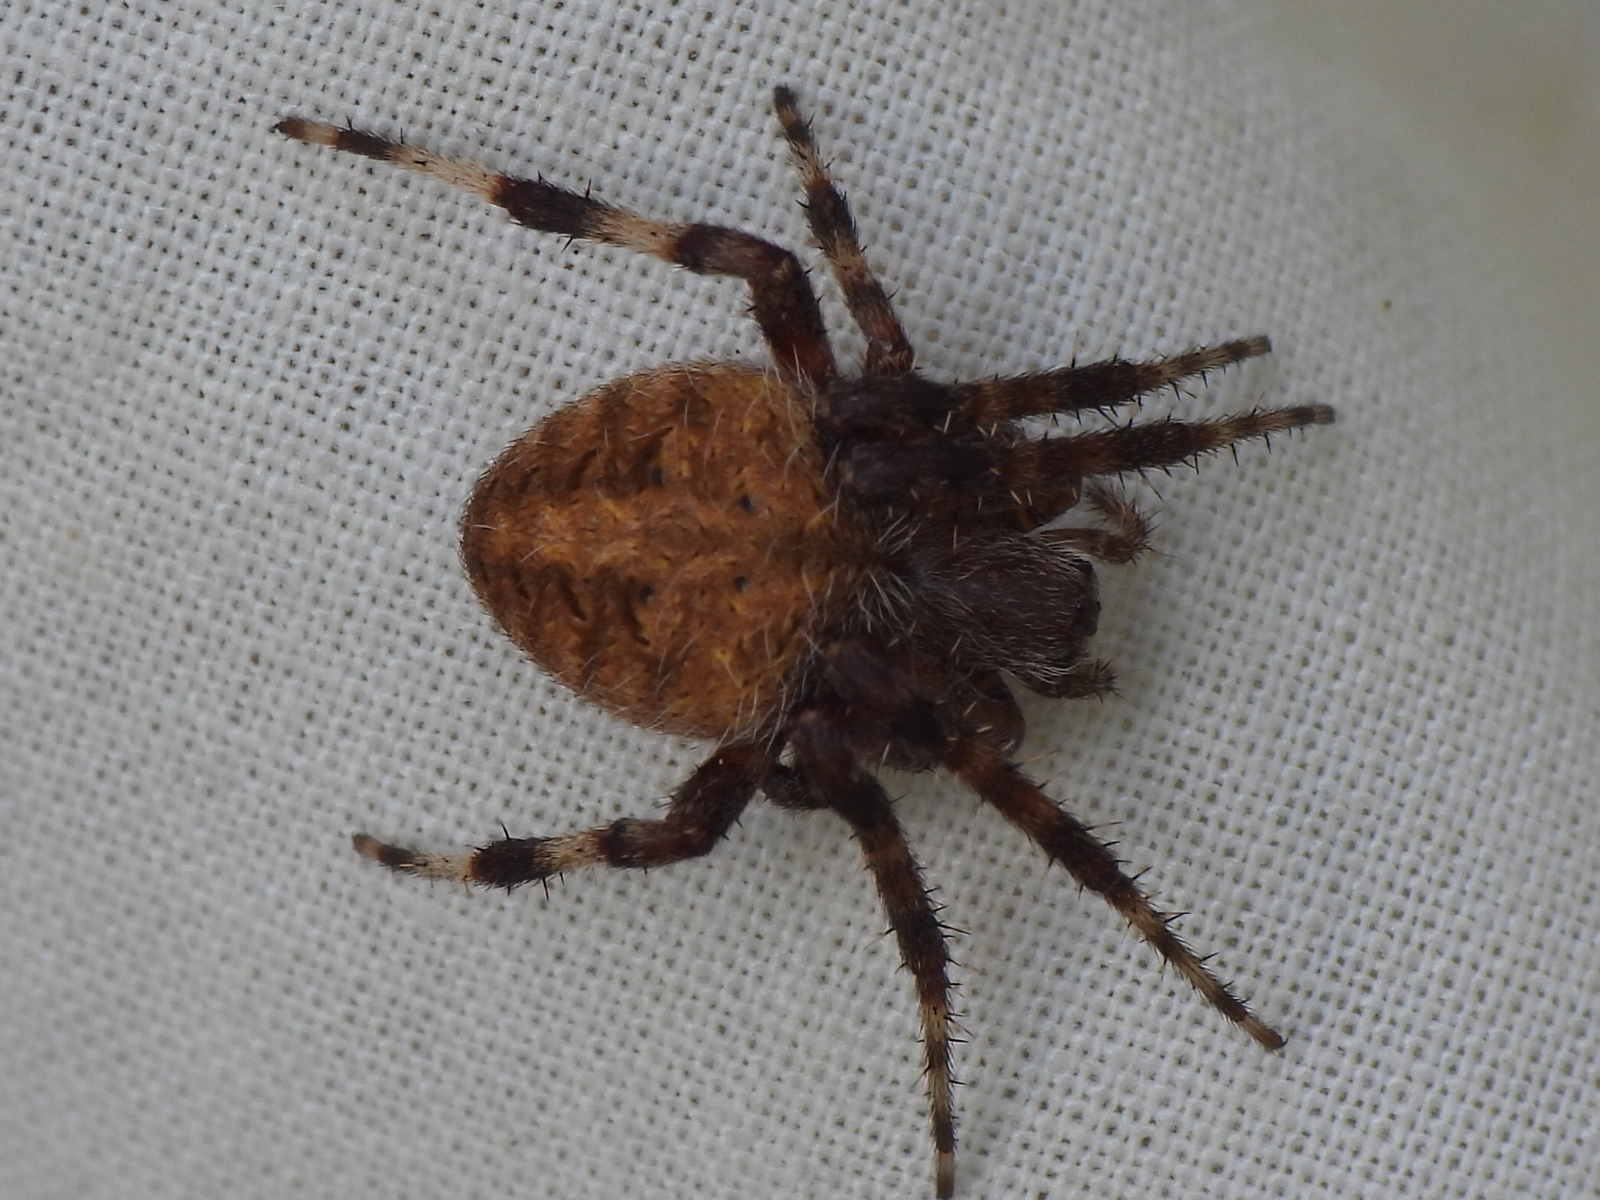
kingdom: Animalia
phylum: Arthropoda
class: Arachnida
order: Araneae
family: Araneidae
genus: Neoscona
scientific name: Neoscona crucifera
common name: Spotted orbweaver
